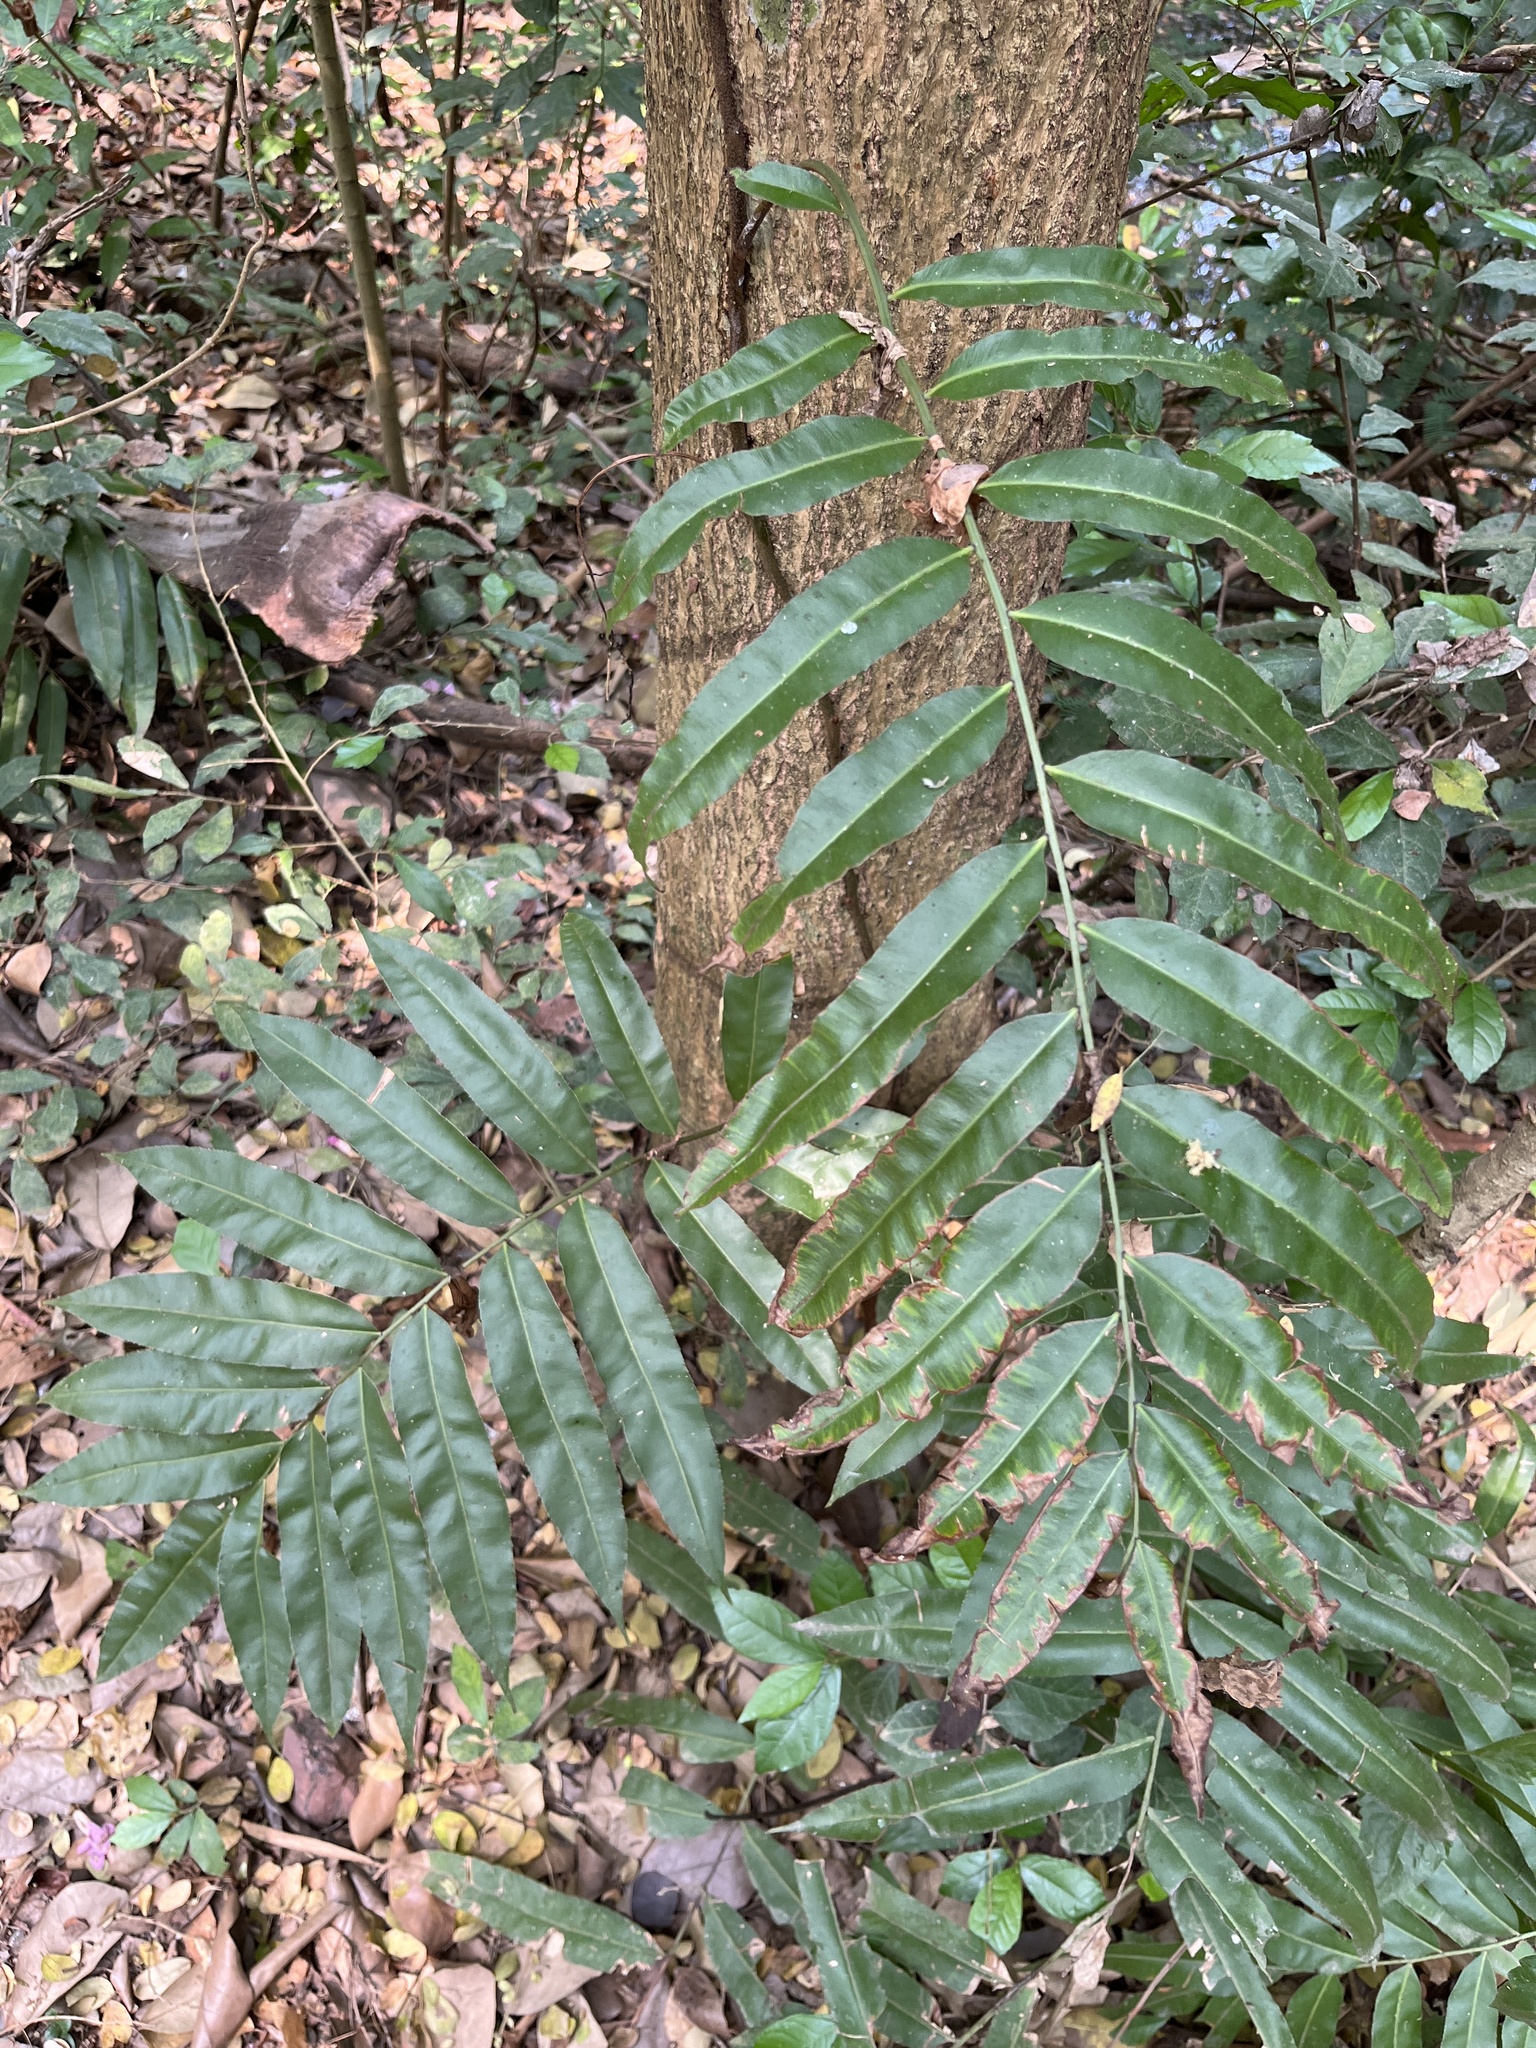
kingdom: Plantae
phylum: Tracheophyta
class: Polypodiopsida
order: Polypodiales
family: Blechnaceae
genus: Stenochlaena
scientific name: Stenochlaena palustris
